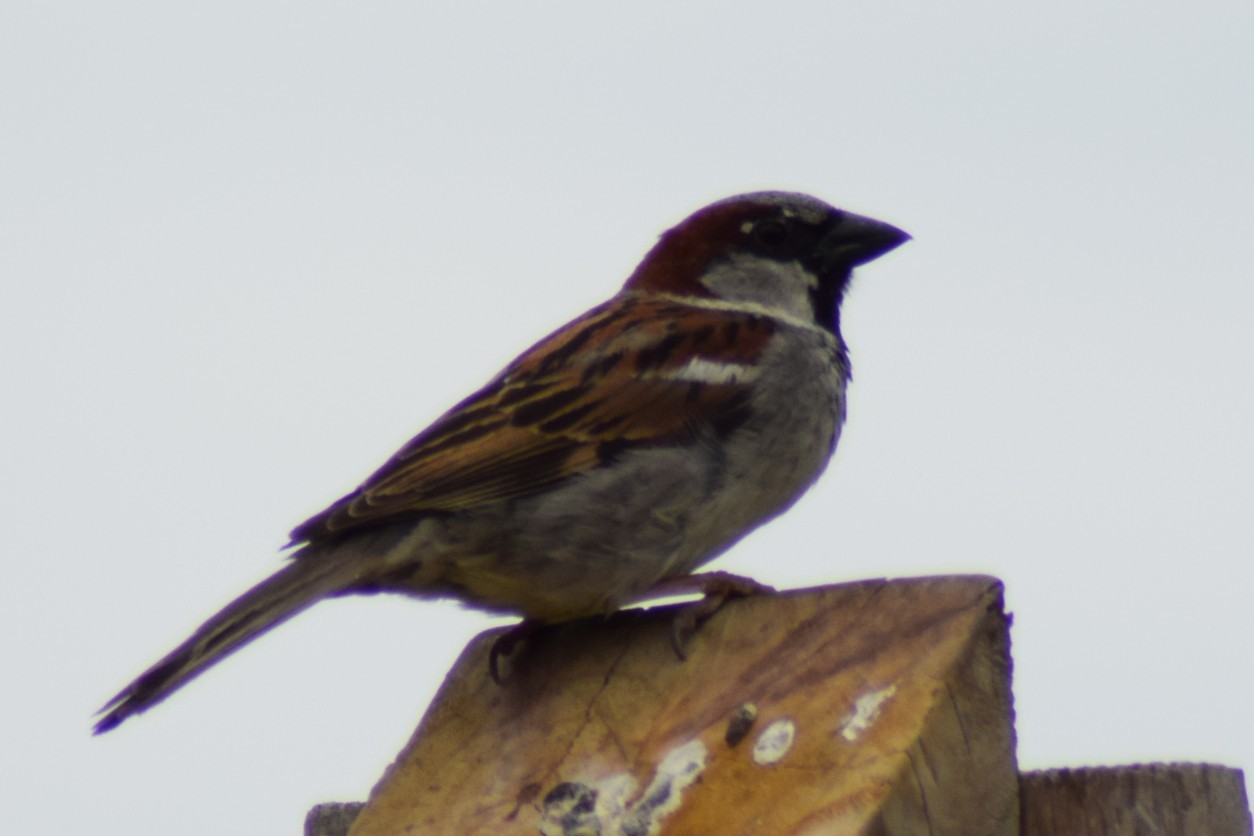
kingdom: Animalia
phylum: Chordata
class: Aves
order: Passeriformes
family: Passeridae
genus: Passer
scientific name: Passer domesticus
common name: House sparrow
